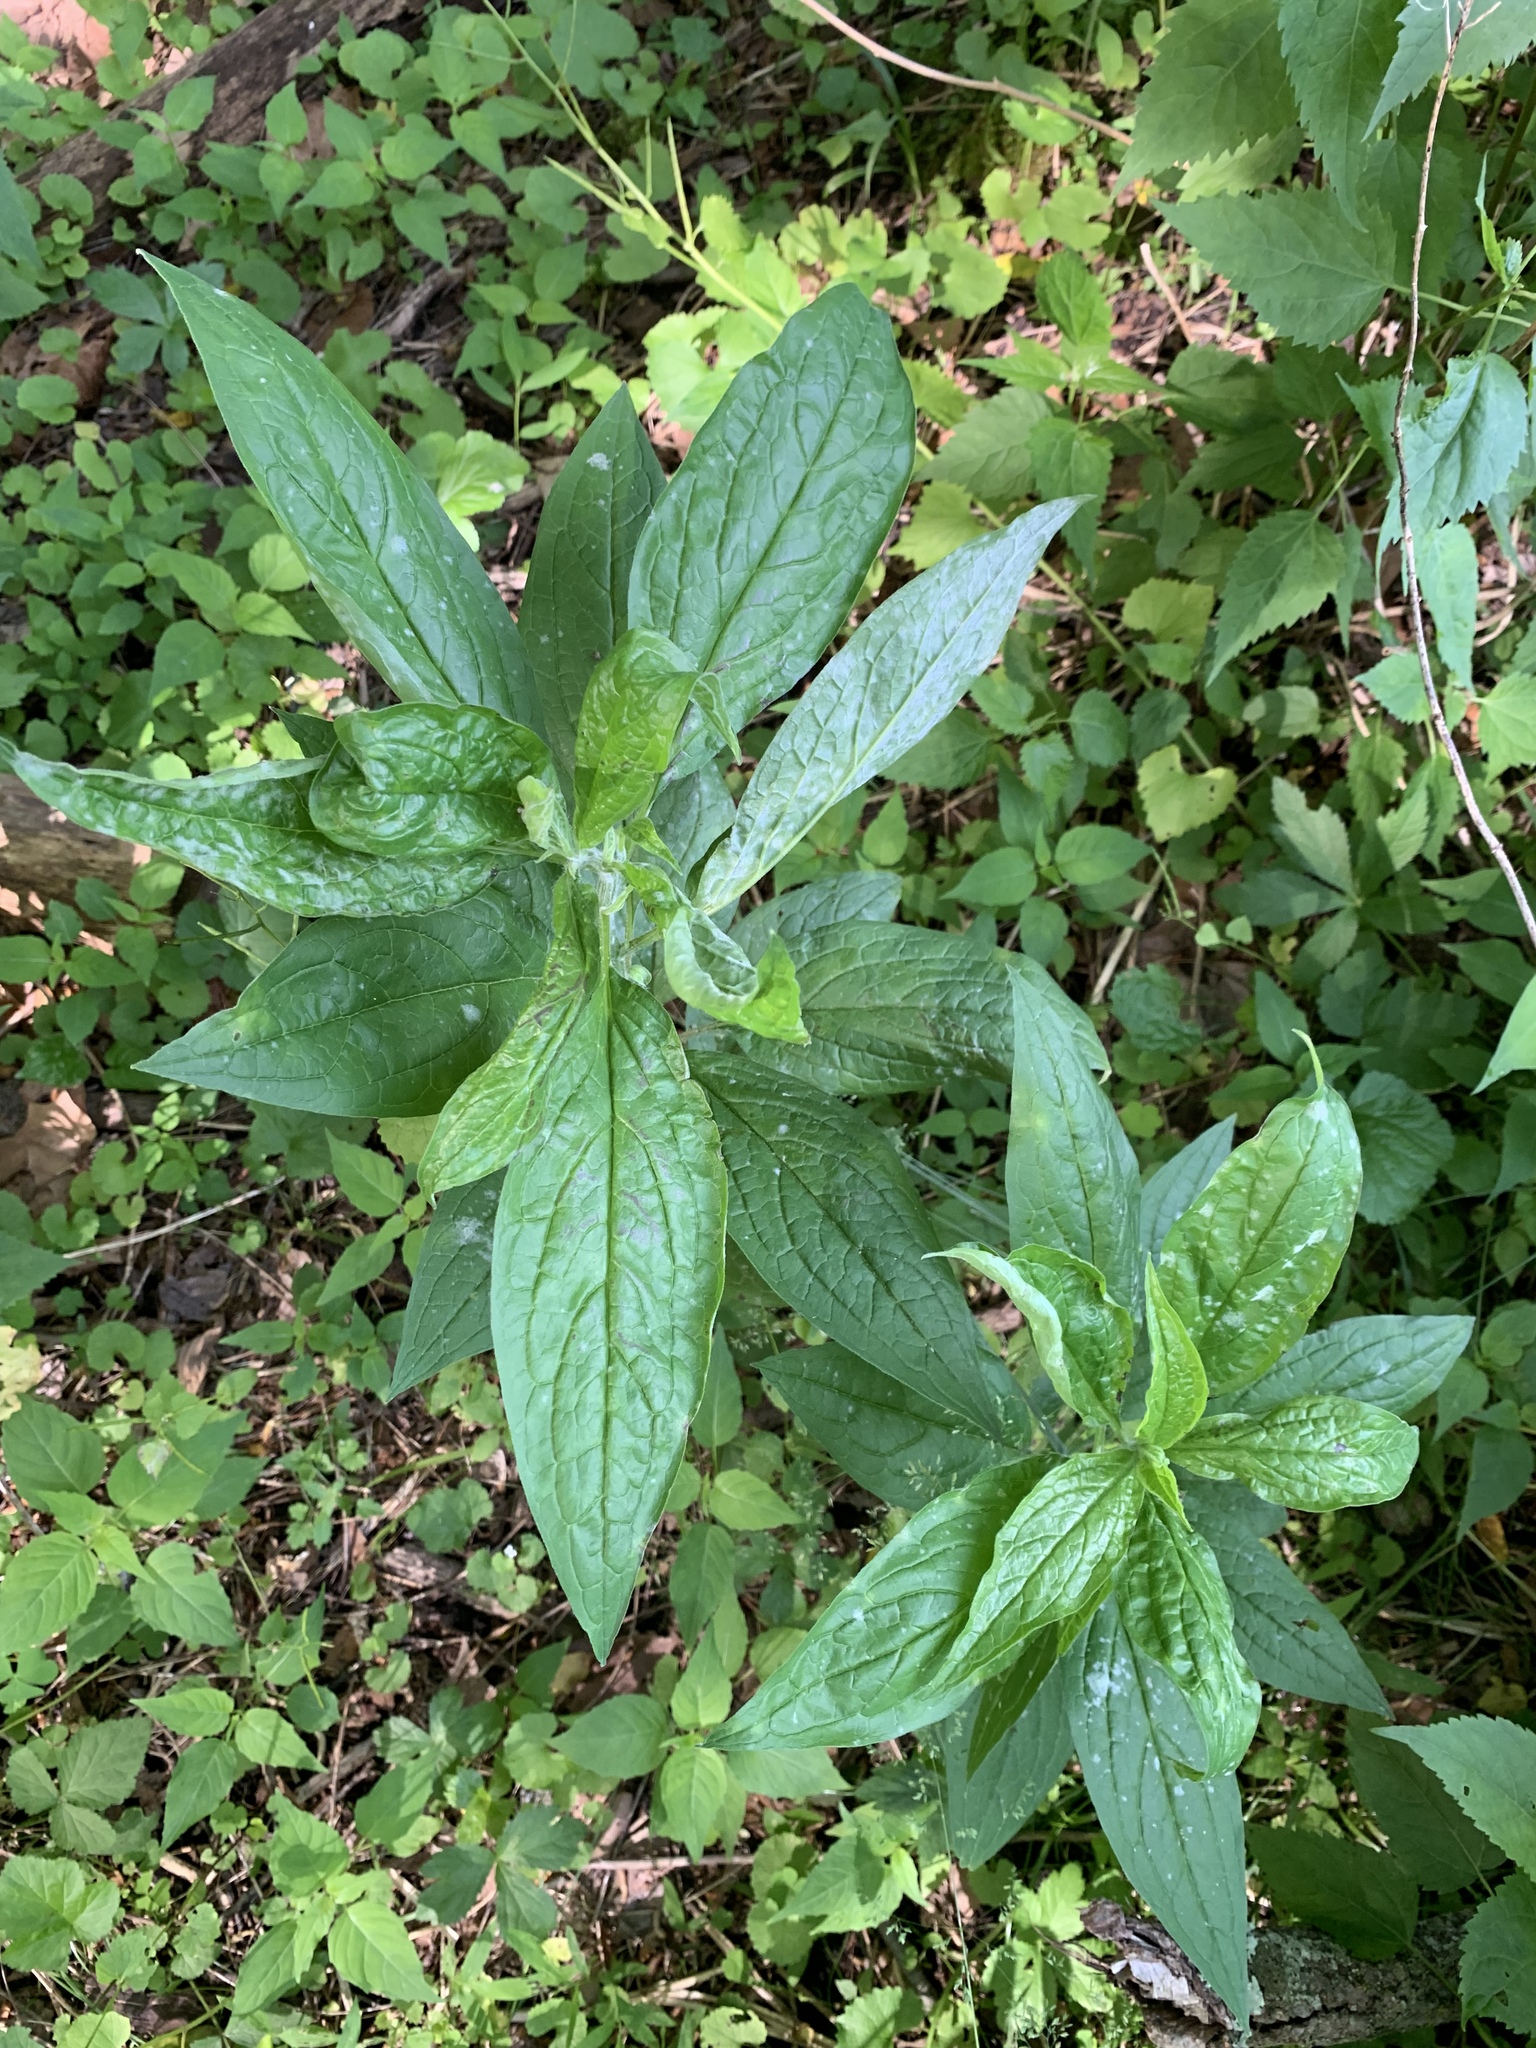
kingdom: Plantae
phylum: Tracheophyta
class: Magnoliopsida
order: Boraginales
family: Boraginaceae
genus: Hackelia
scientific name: Hackelia virginiana
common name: Beggar's-lice
